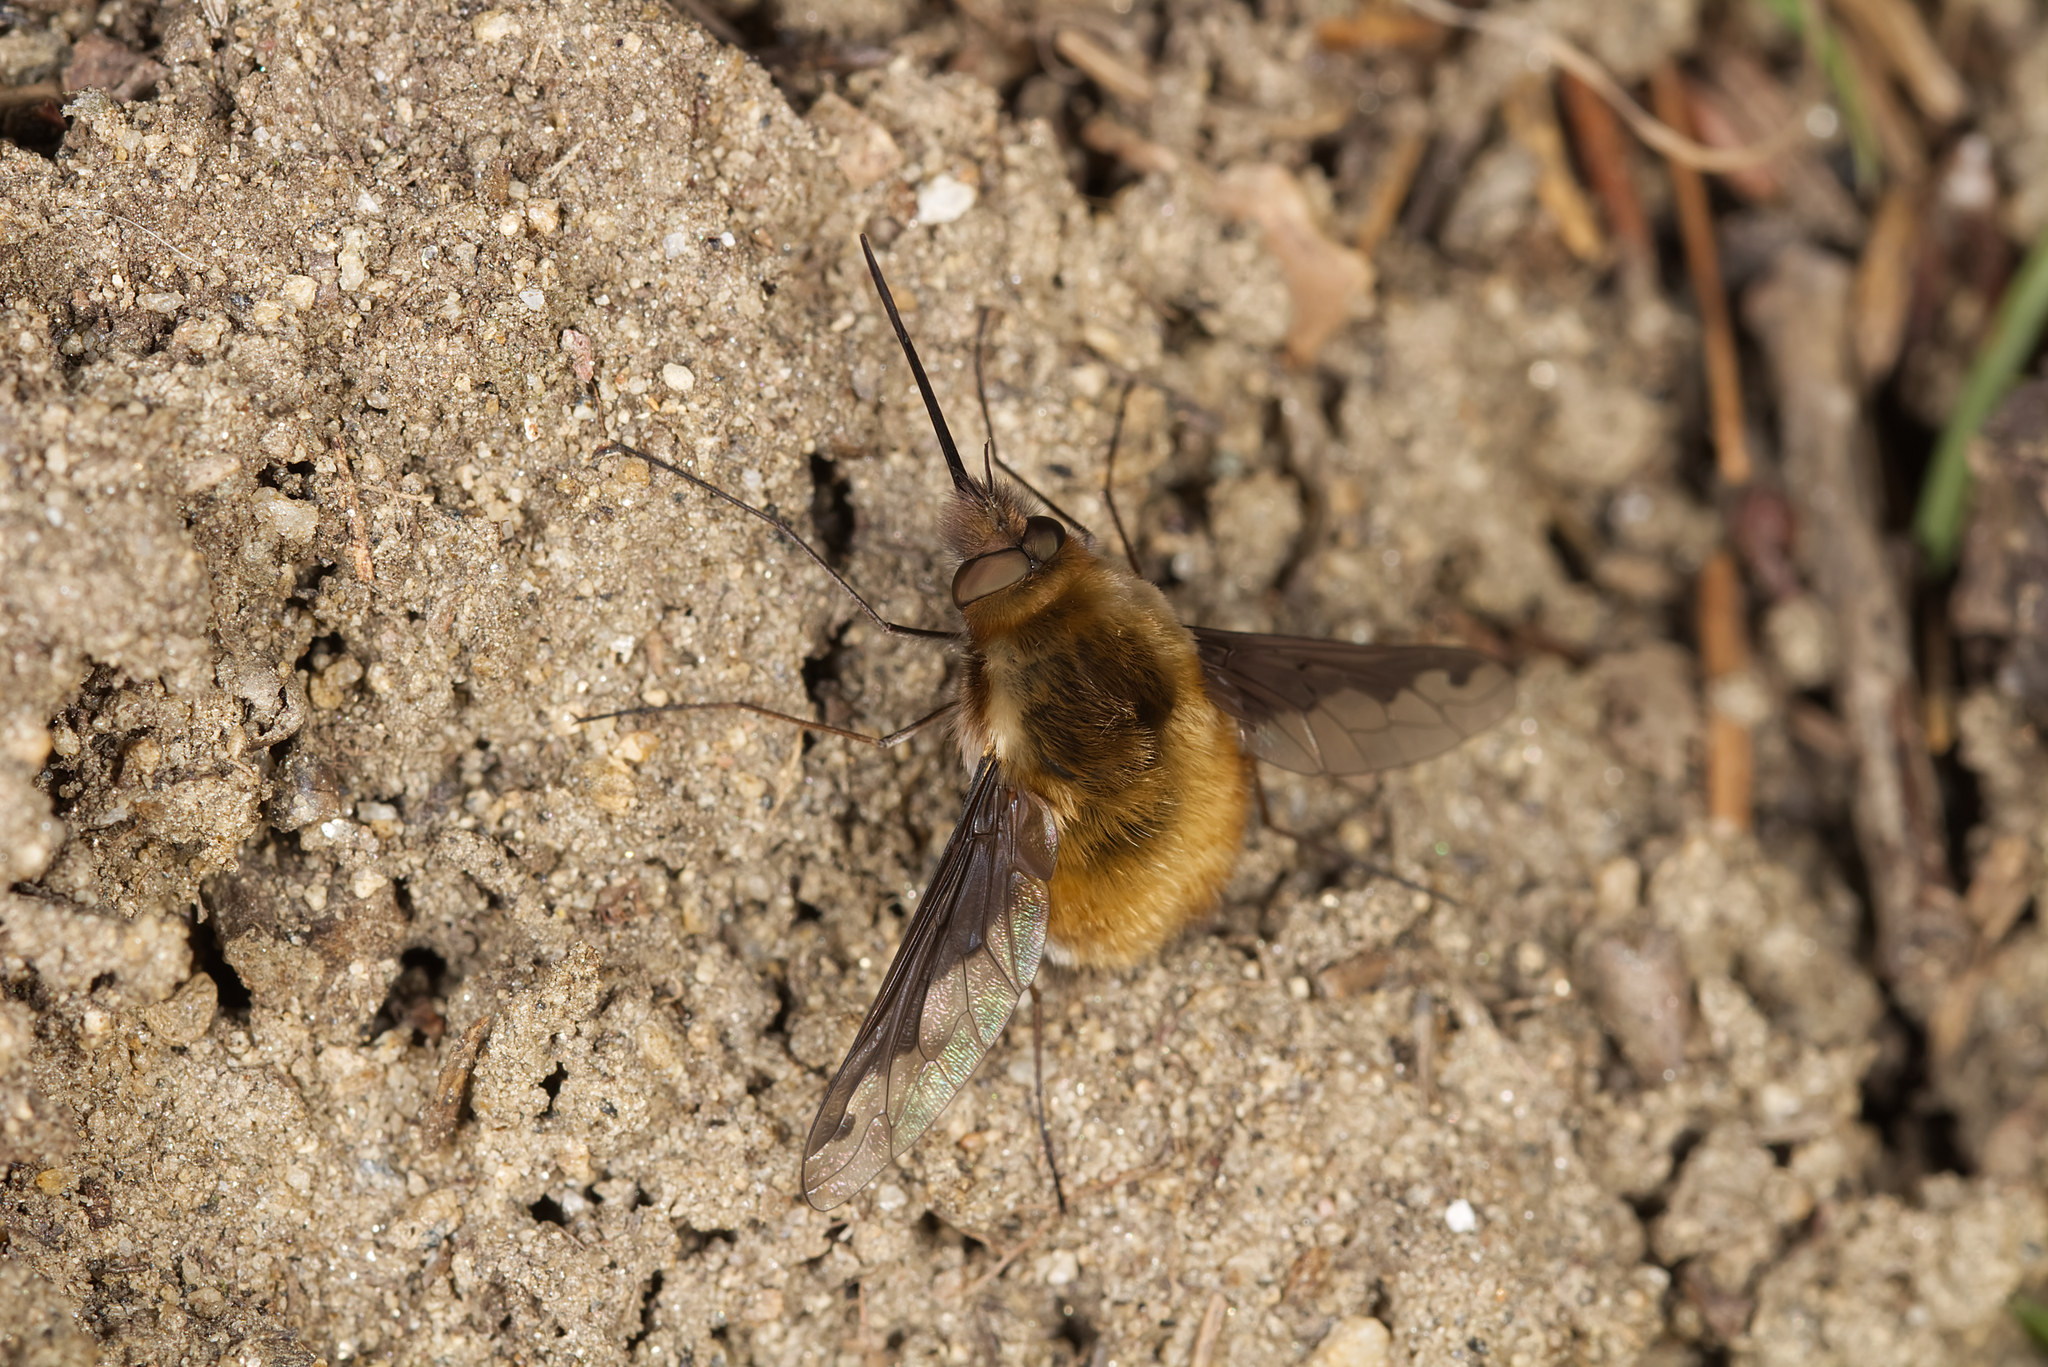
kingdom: Animalia
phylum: Arthropoda
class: Insecta
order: Diptera
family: Bombyliidae
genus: Bombylius
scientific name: Bombylius major
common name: Bee fly
